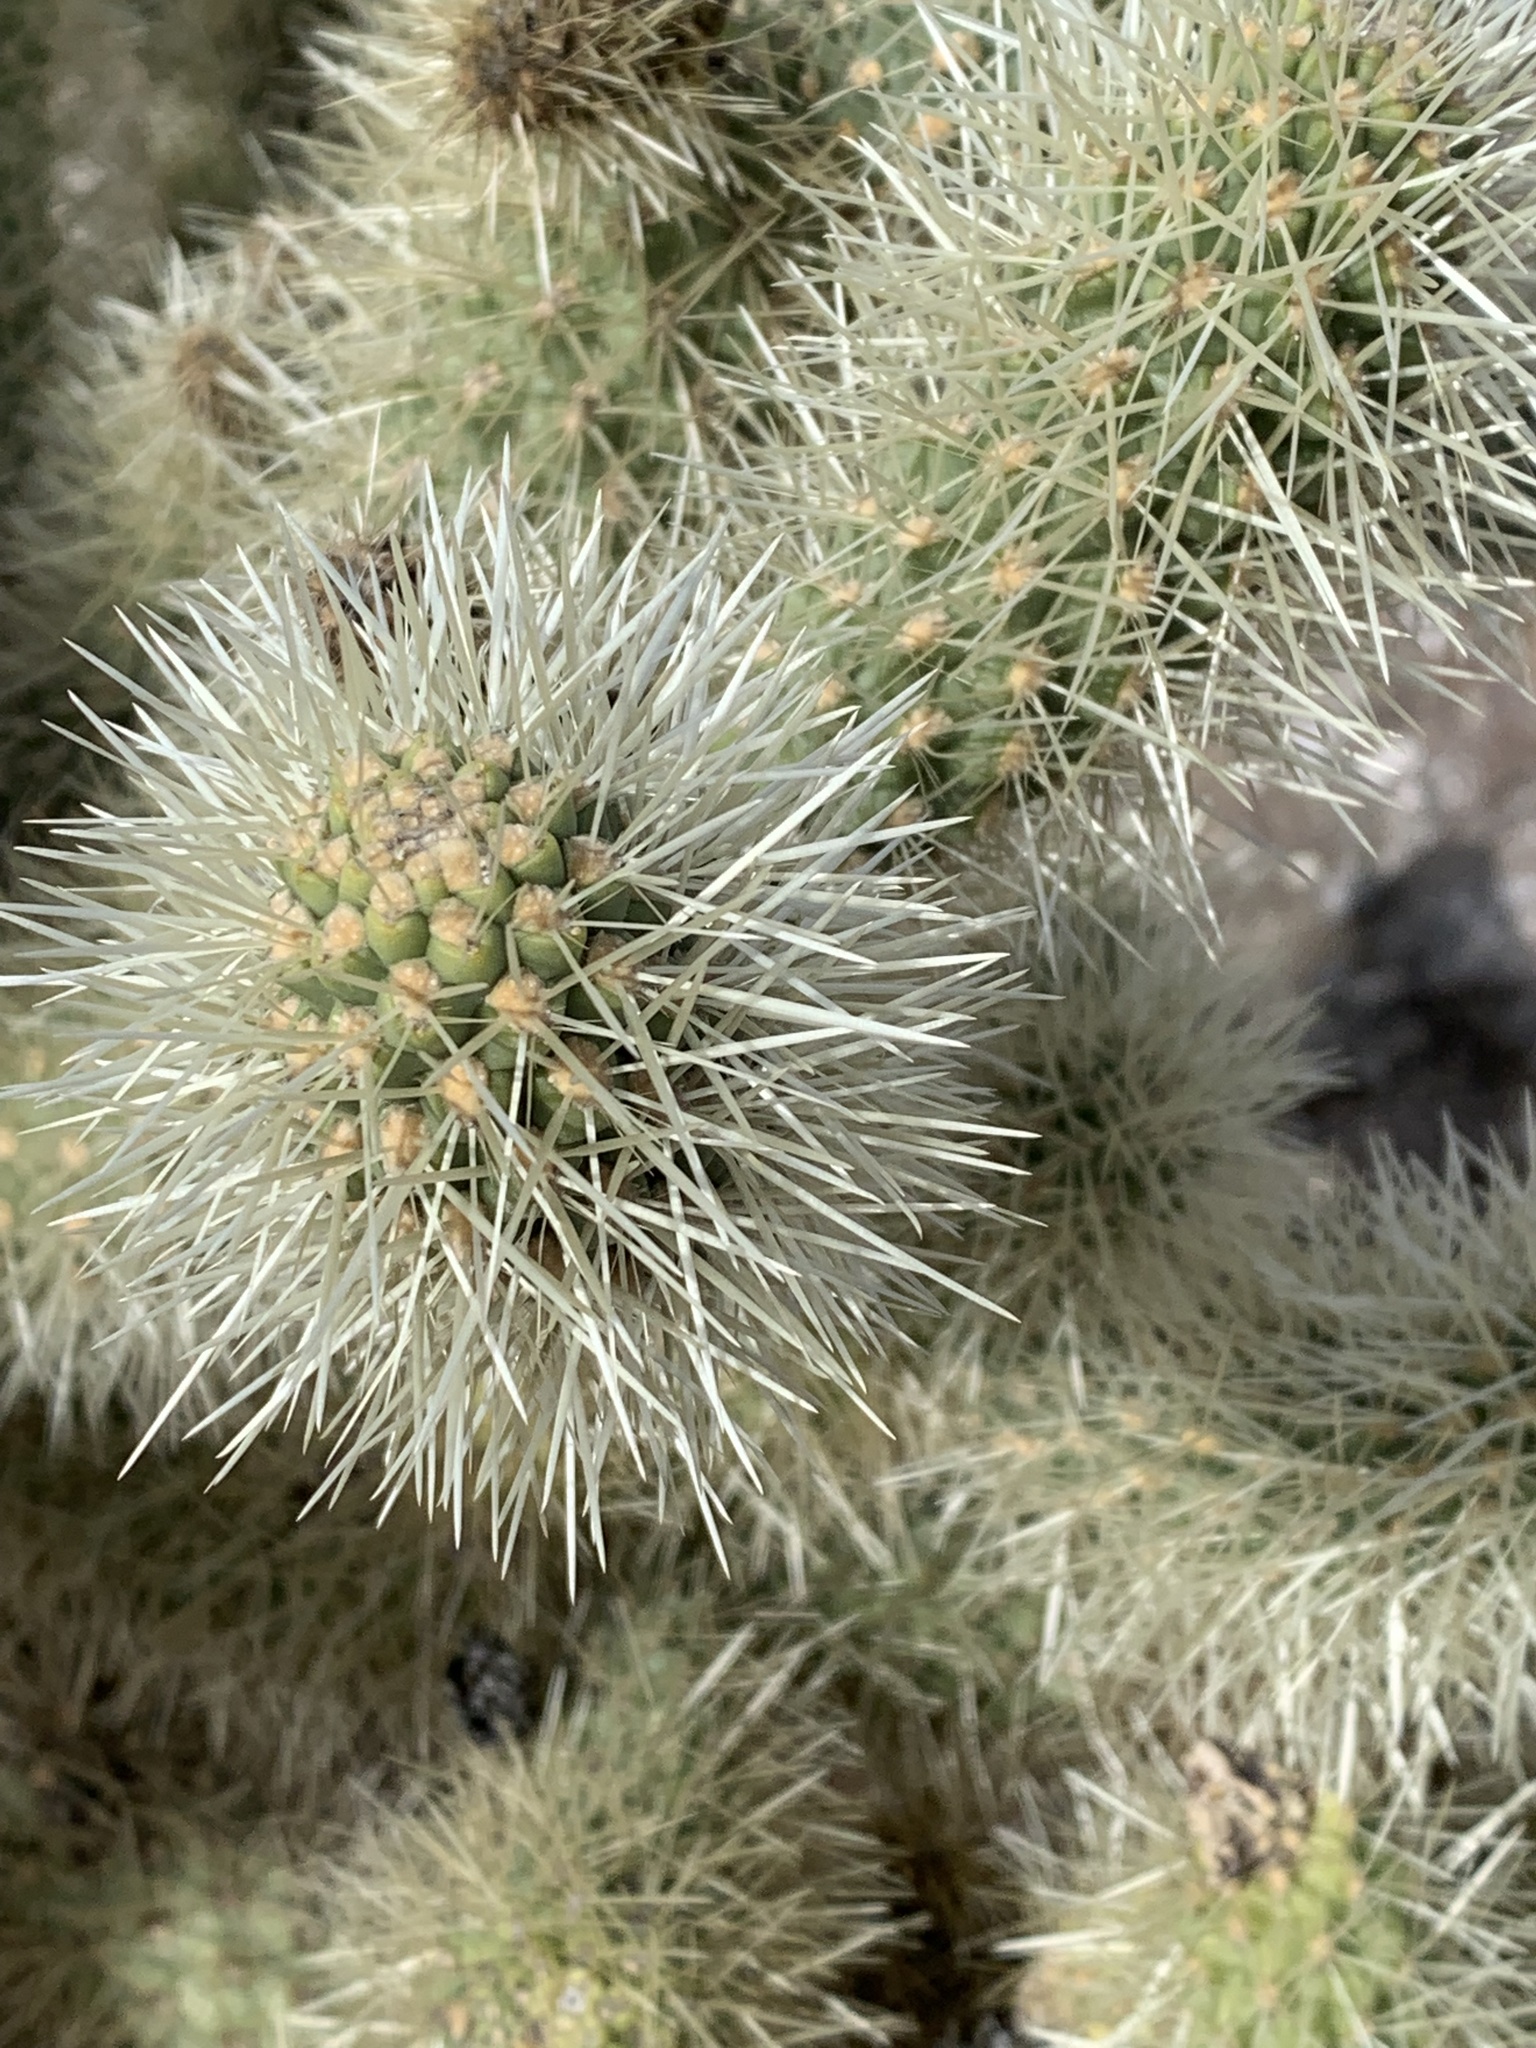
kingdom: Plantae
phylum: Tracheophyta
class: Magnoliopsida
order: Caryophyllales
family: Cactaceae
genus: Cylindropuntia
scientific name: Cylindropuntia fosbergii
